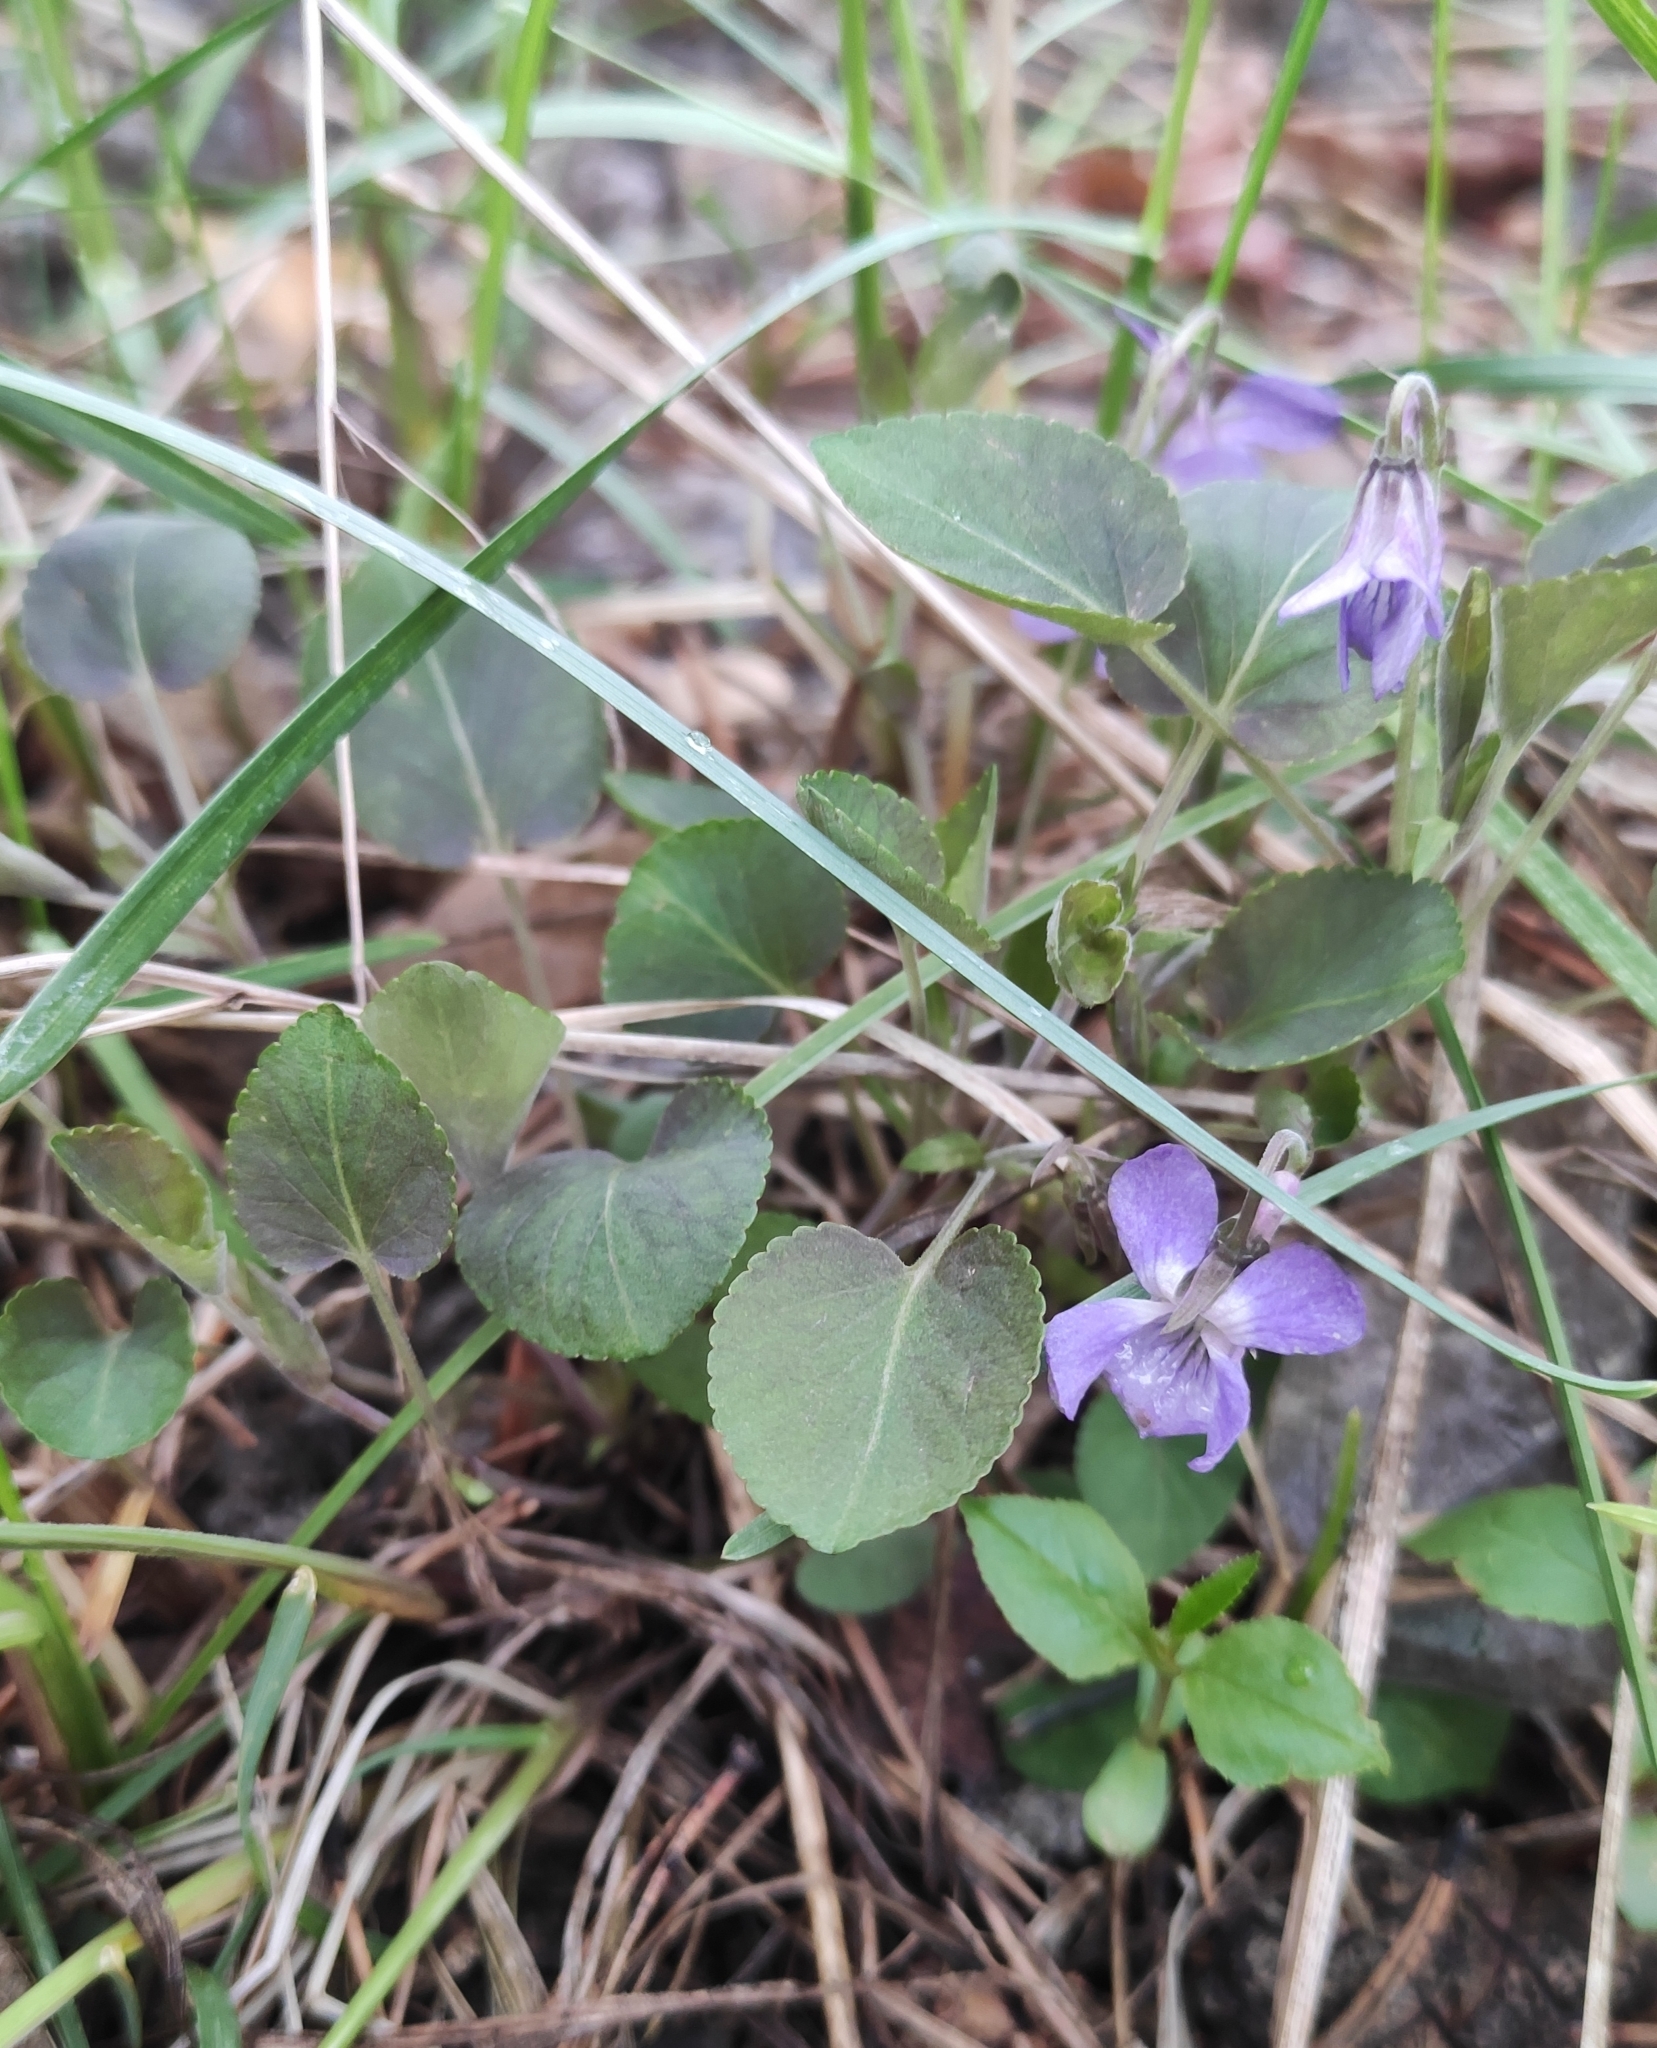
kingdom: Plantae
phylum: Tracheophyta
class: Magnoliopsida
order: Malpighiales
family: Violaceae
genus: Viola
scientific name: Viola rupestris
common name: Teesdale violet
